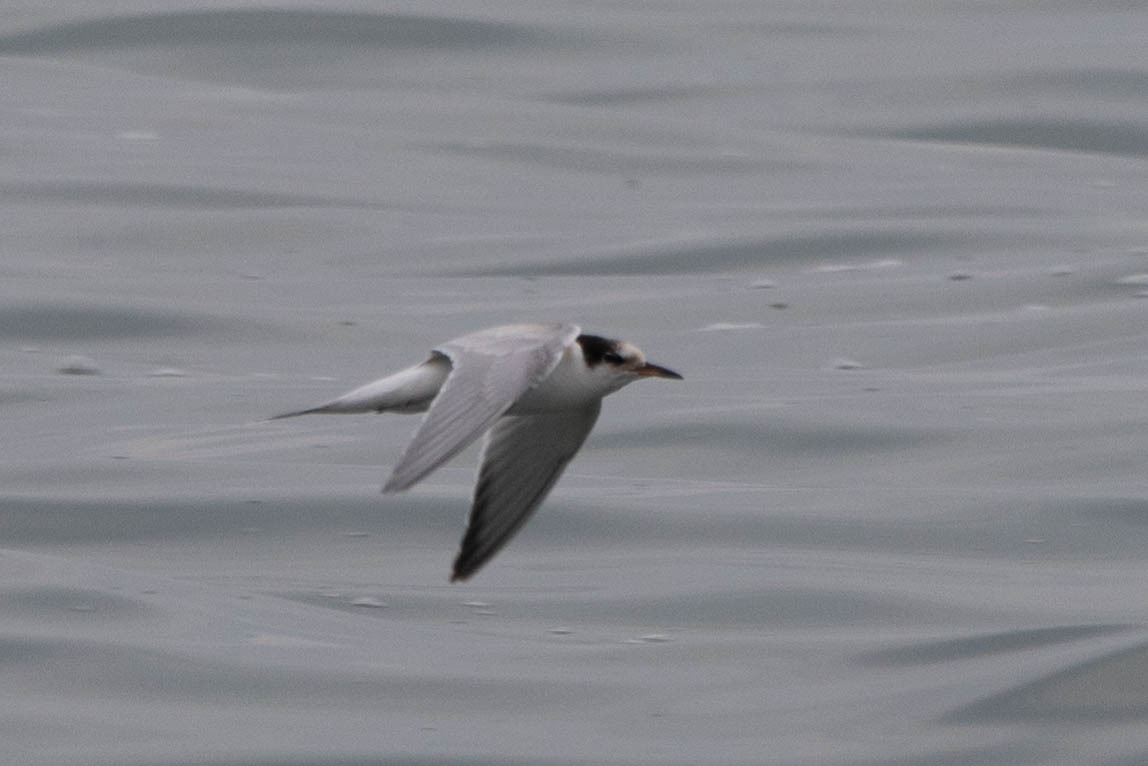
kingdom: Animalia
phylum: Chordata
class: Aves
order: Charadriiformes
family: Laridae
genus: Sterna
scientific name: Sterna hirundo
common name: Common tern
